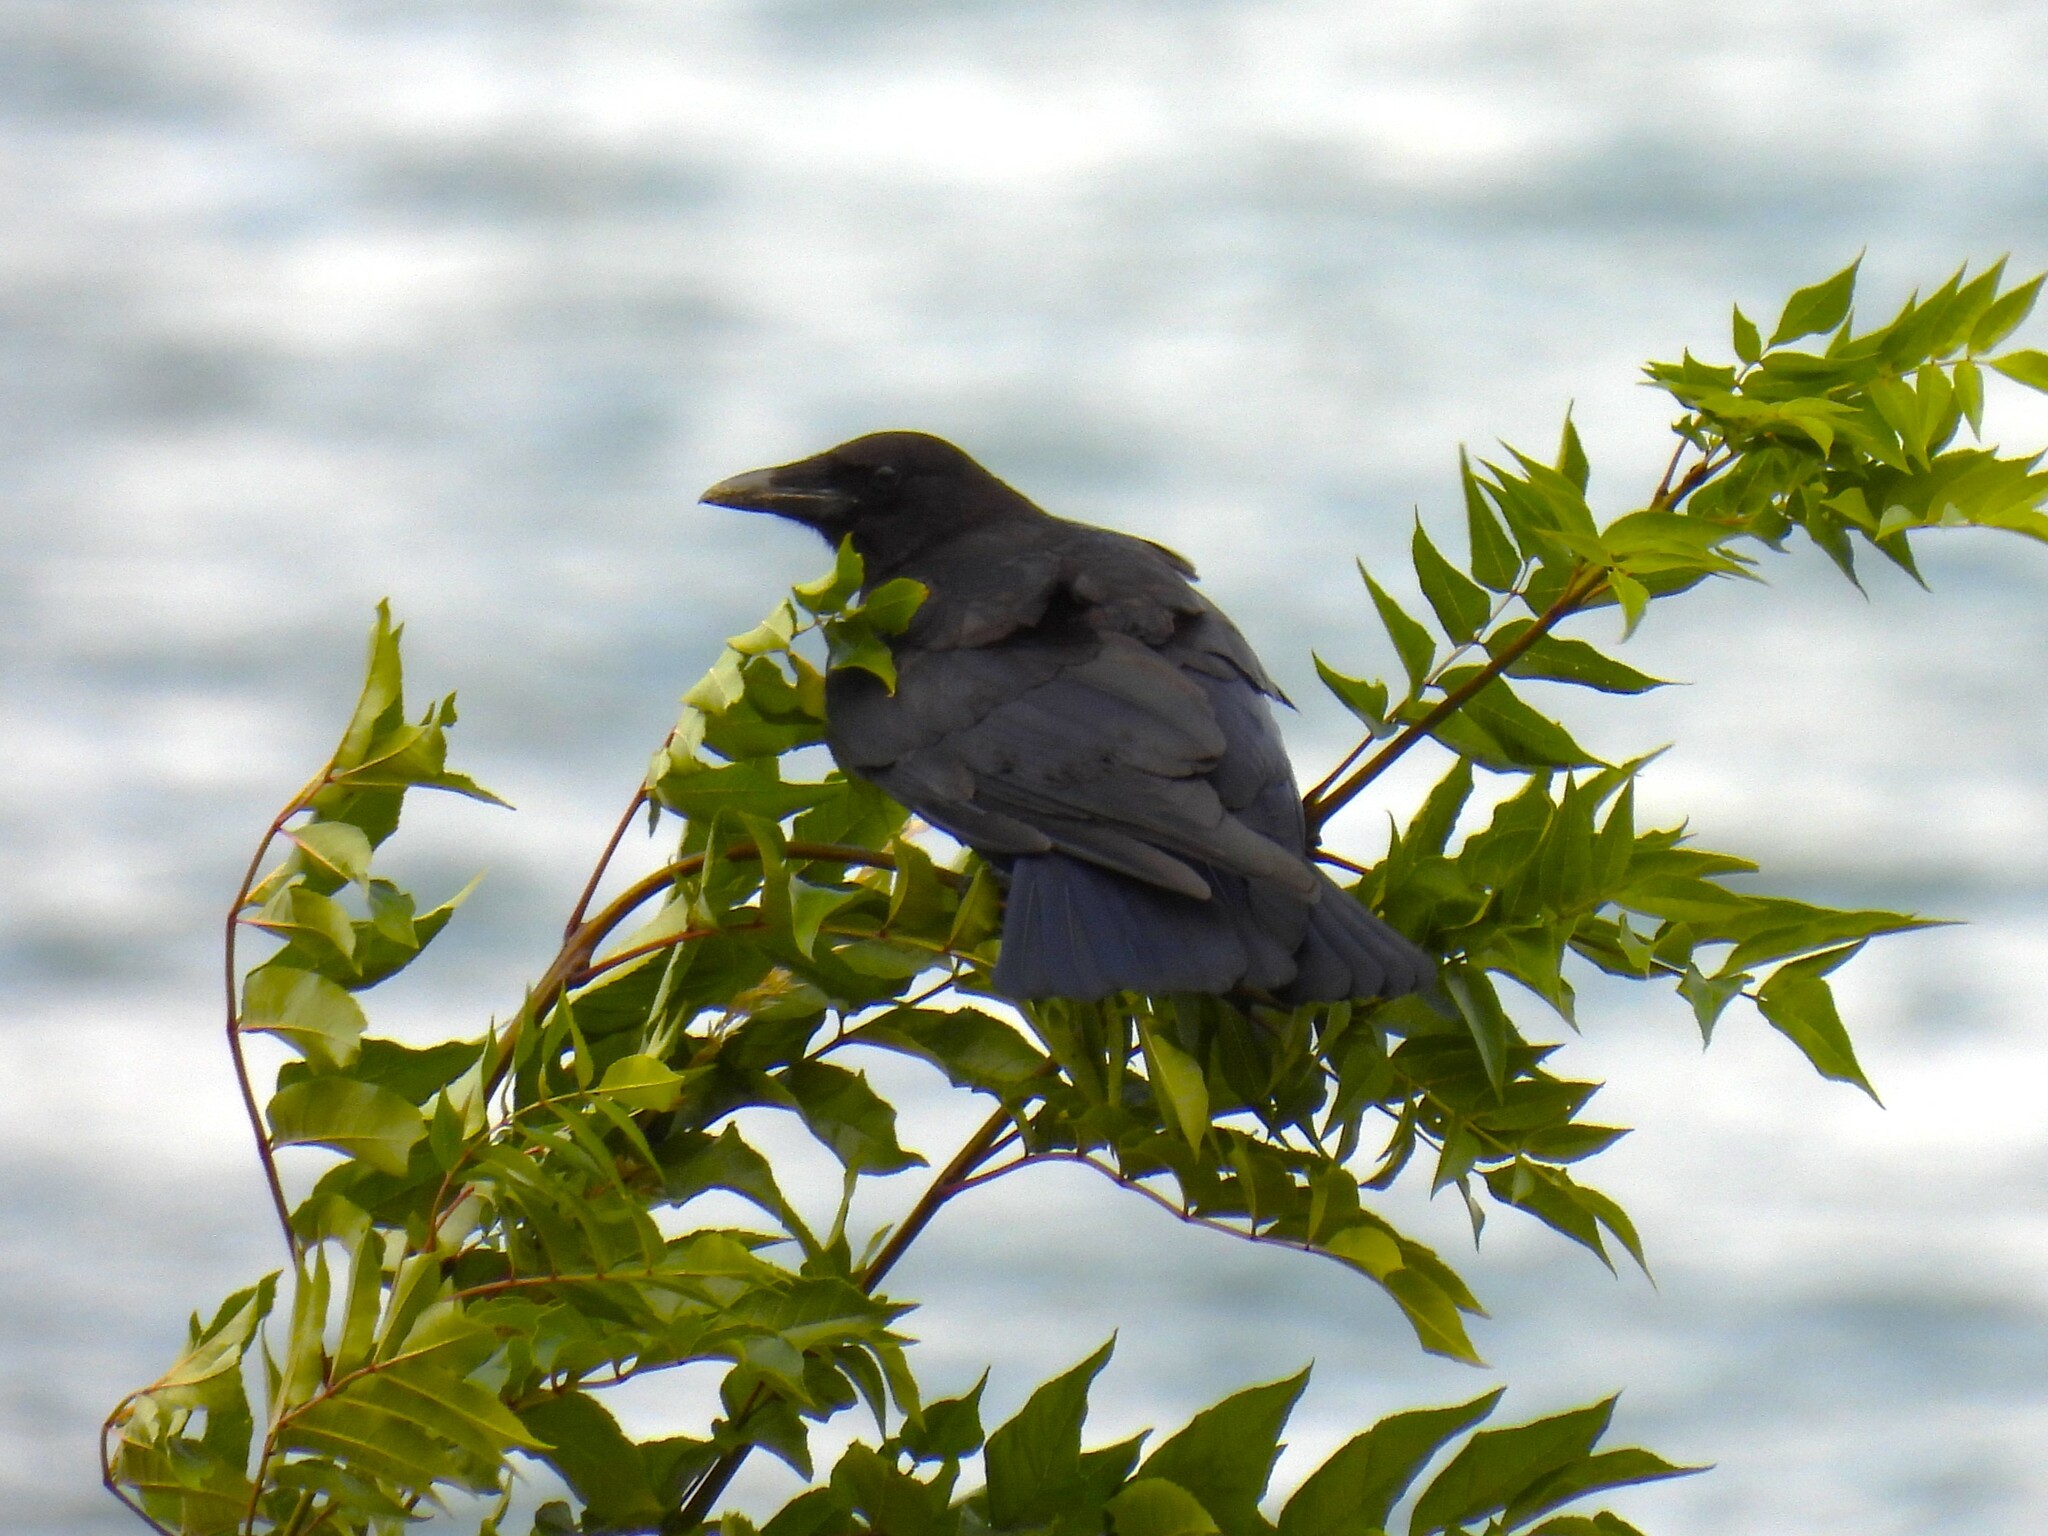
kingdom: Animalia
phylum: Chordata
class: Aves
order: Passeriformes
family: Corvidae
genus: Corvus
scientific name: Corvus corone
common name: Carrion crow
